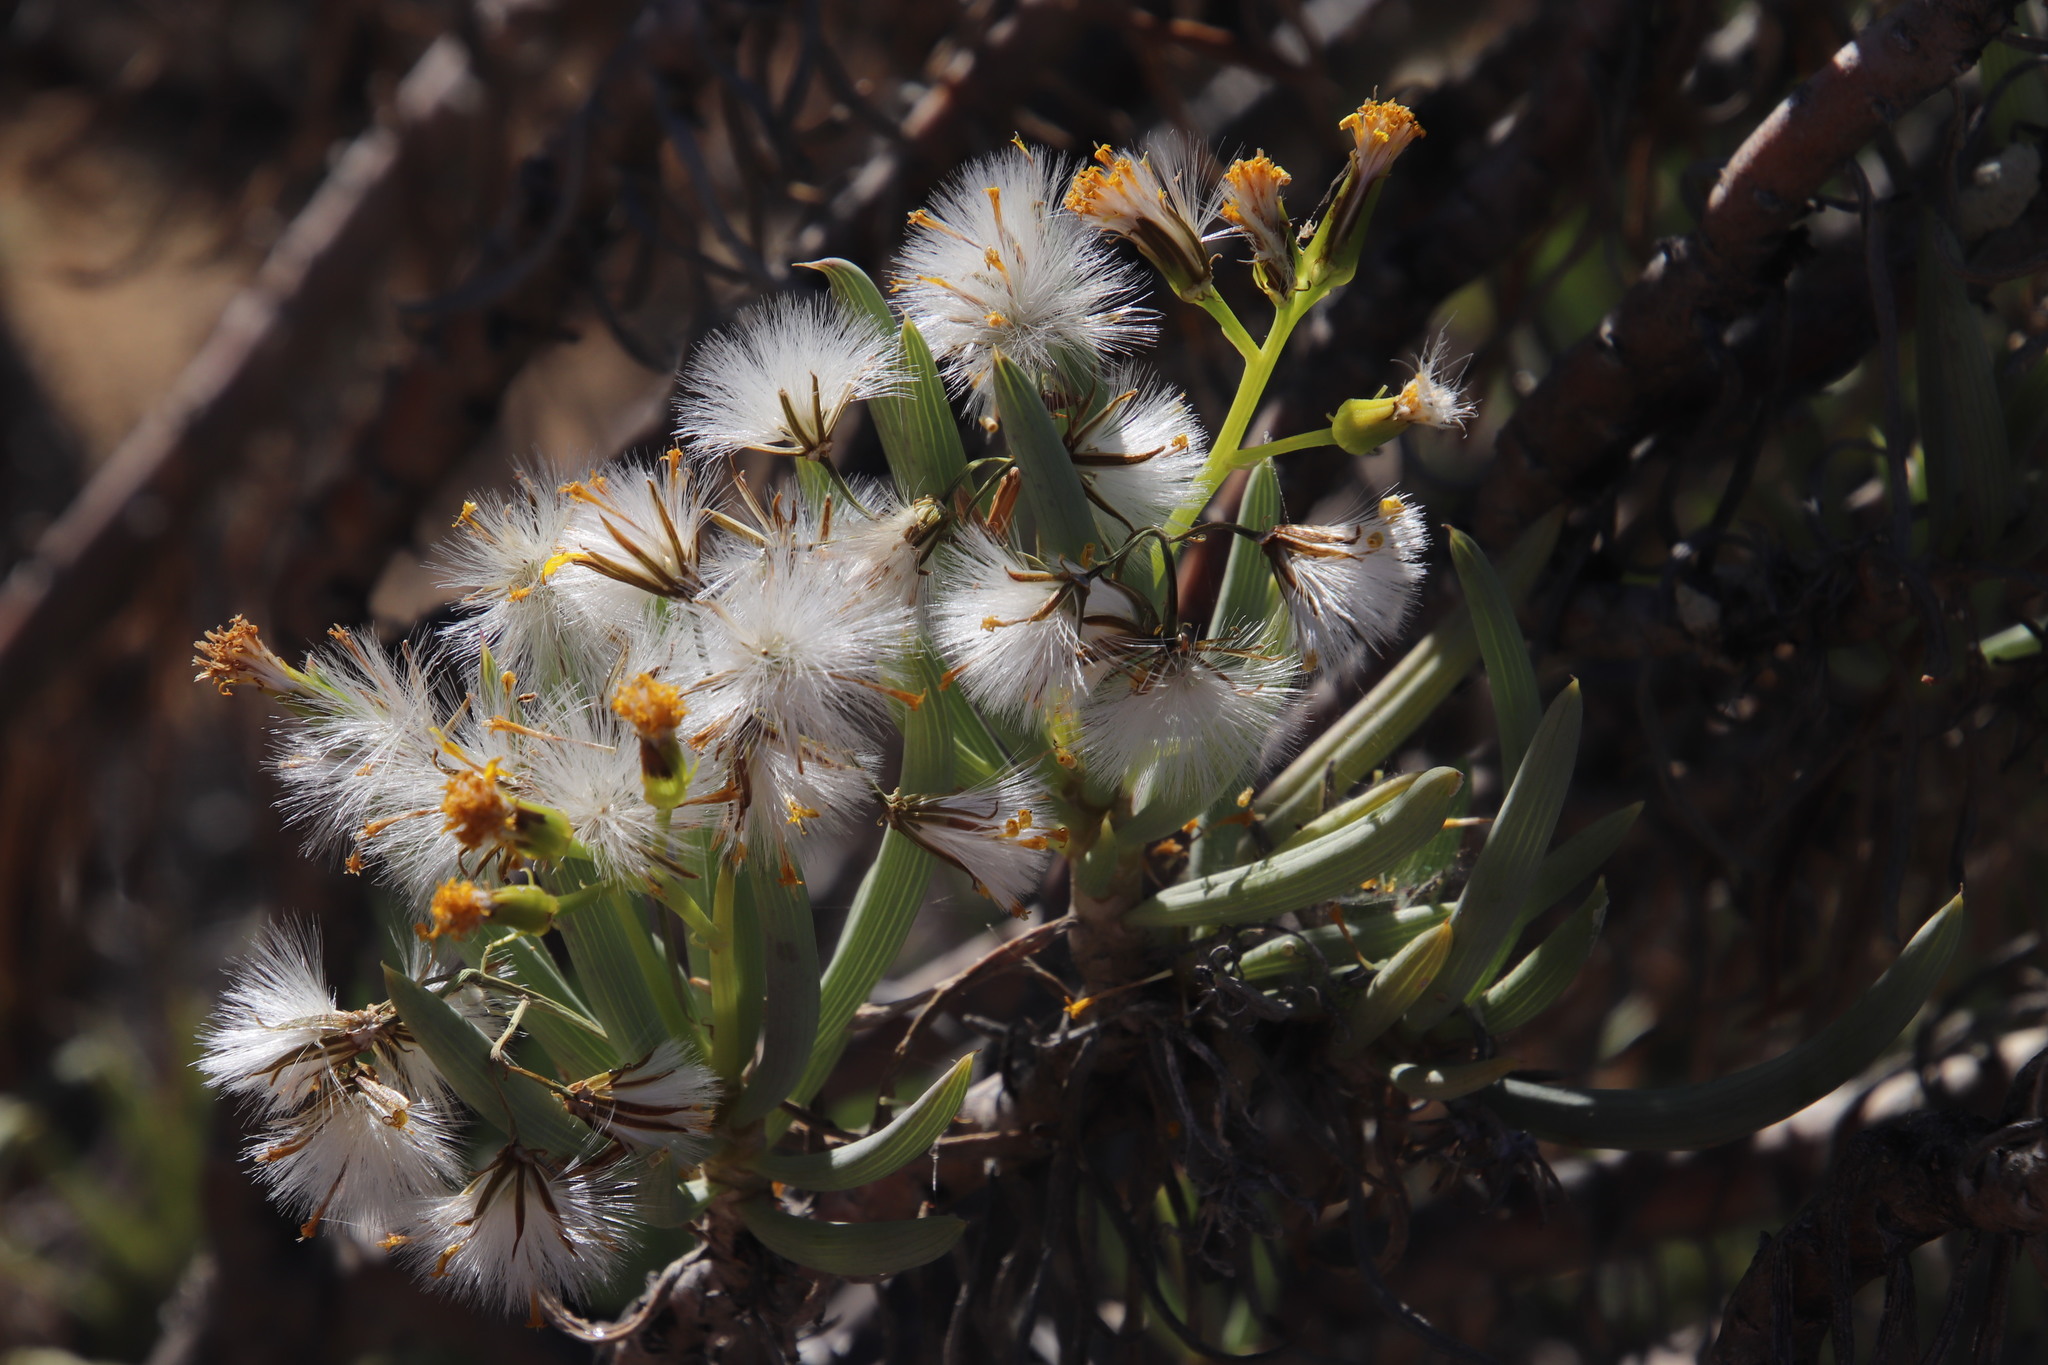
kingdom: Plantae
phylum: Tracheophyta
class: Magnoliopsida
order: Asterales
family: Asteraceae
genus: Curio
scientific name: Curio corymbifer
